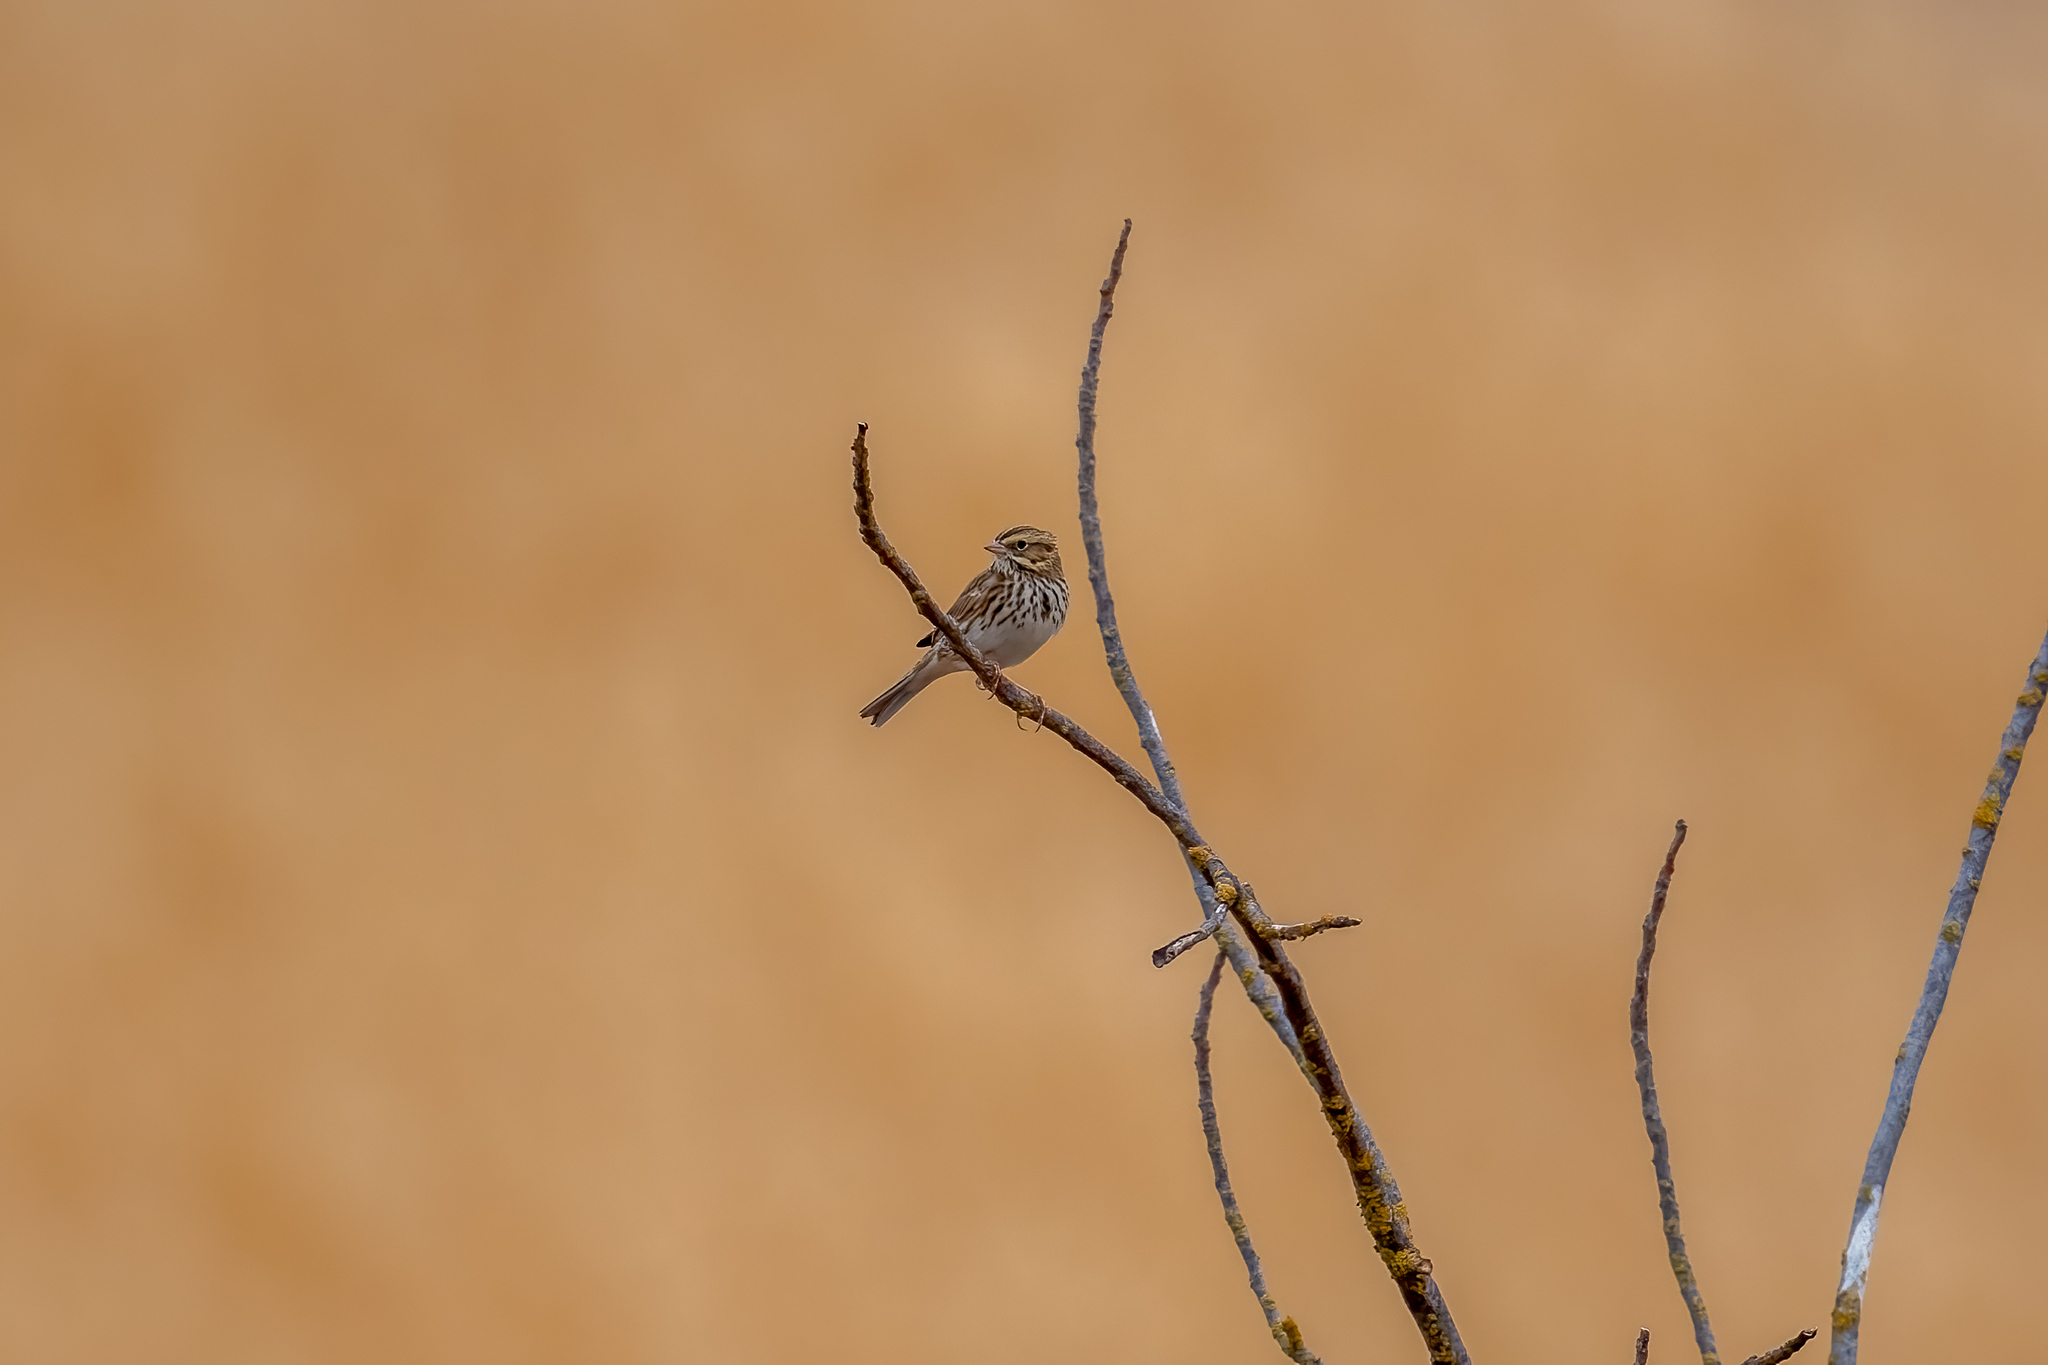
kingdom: Animalia
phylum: Chordata
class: Aves
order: Passeriformes
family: Passerellidae
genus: Passerculus
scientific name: Passerculus sandwichensis
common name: Savannah sparrow
